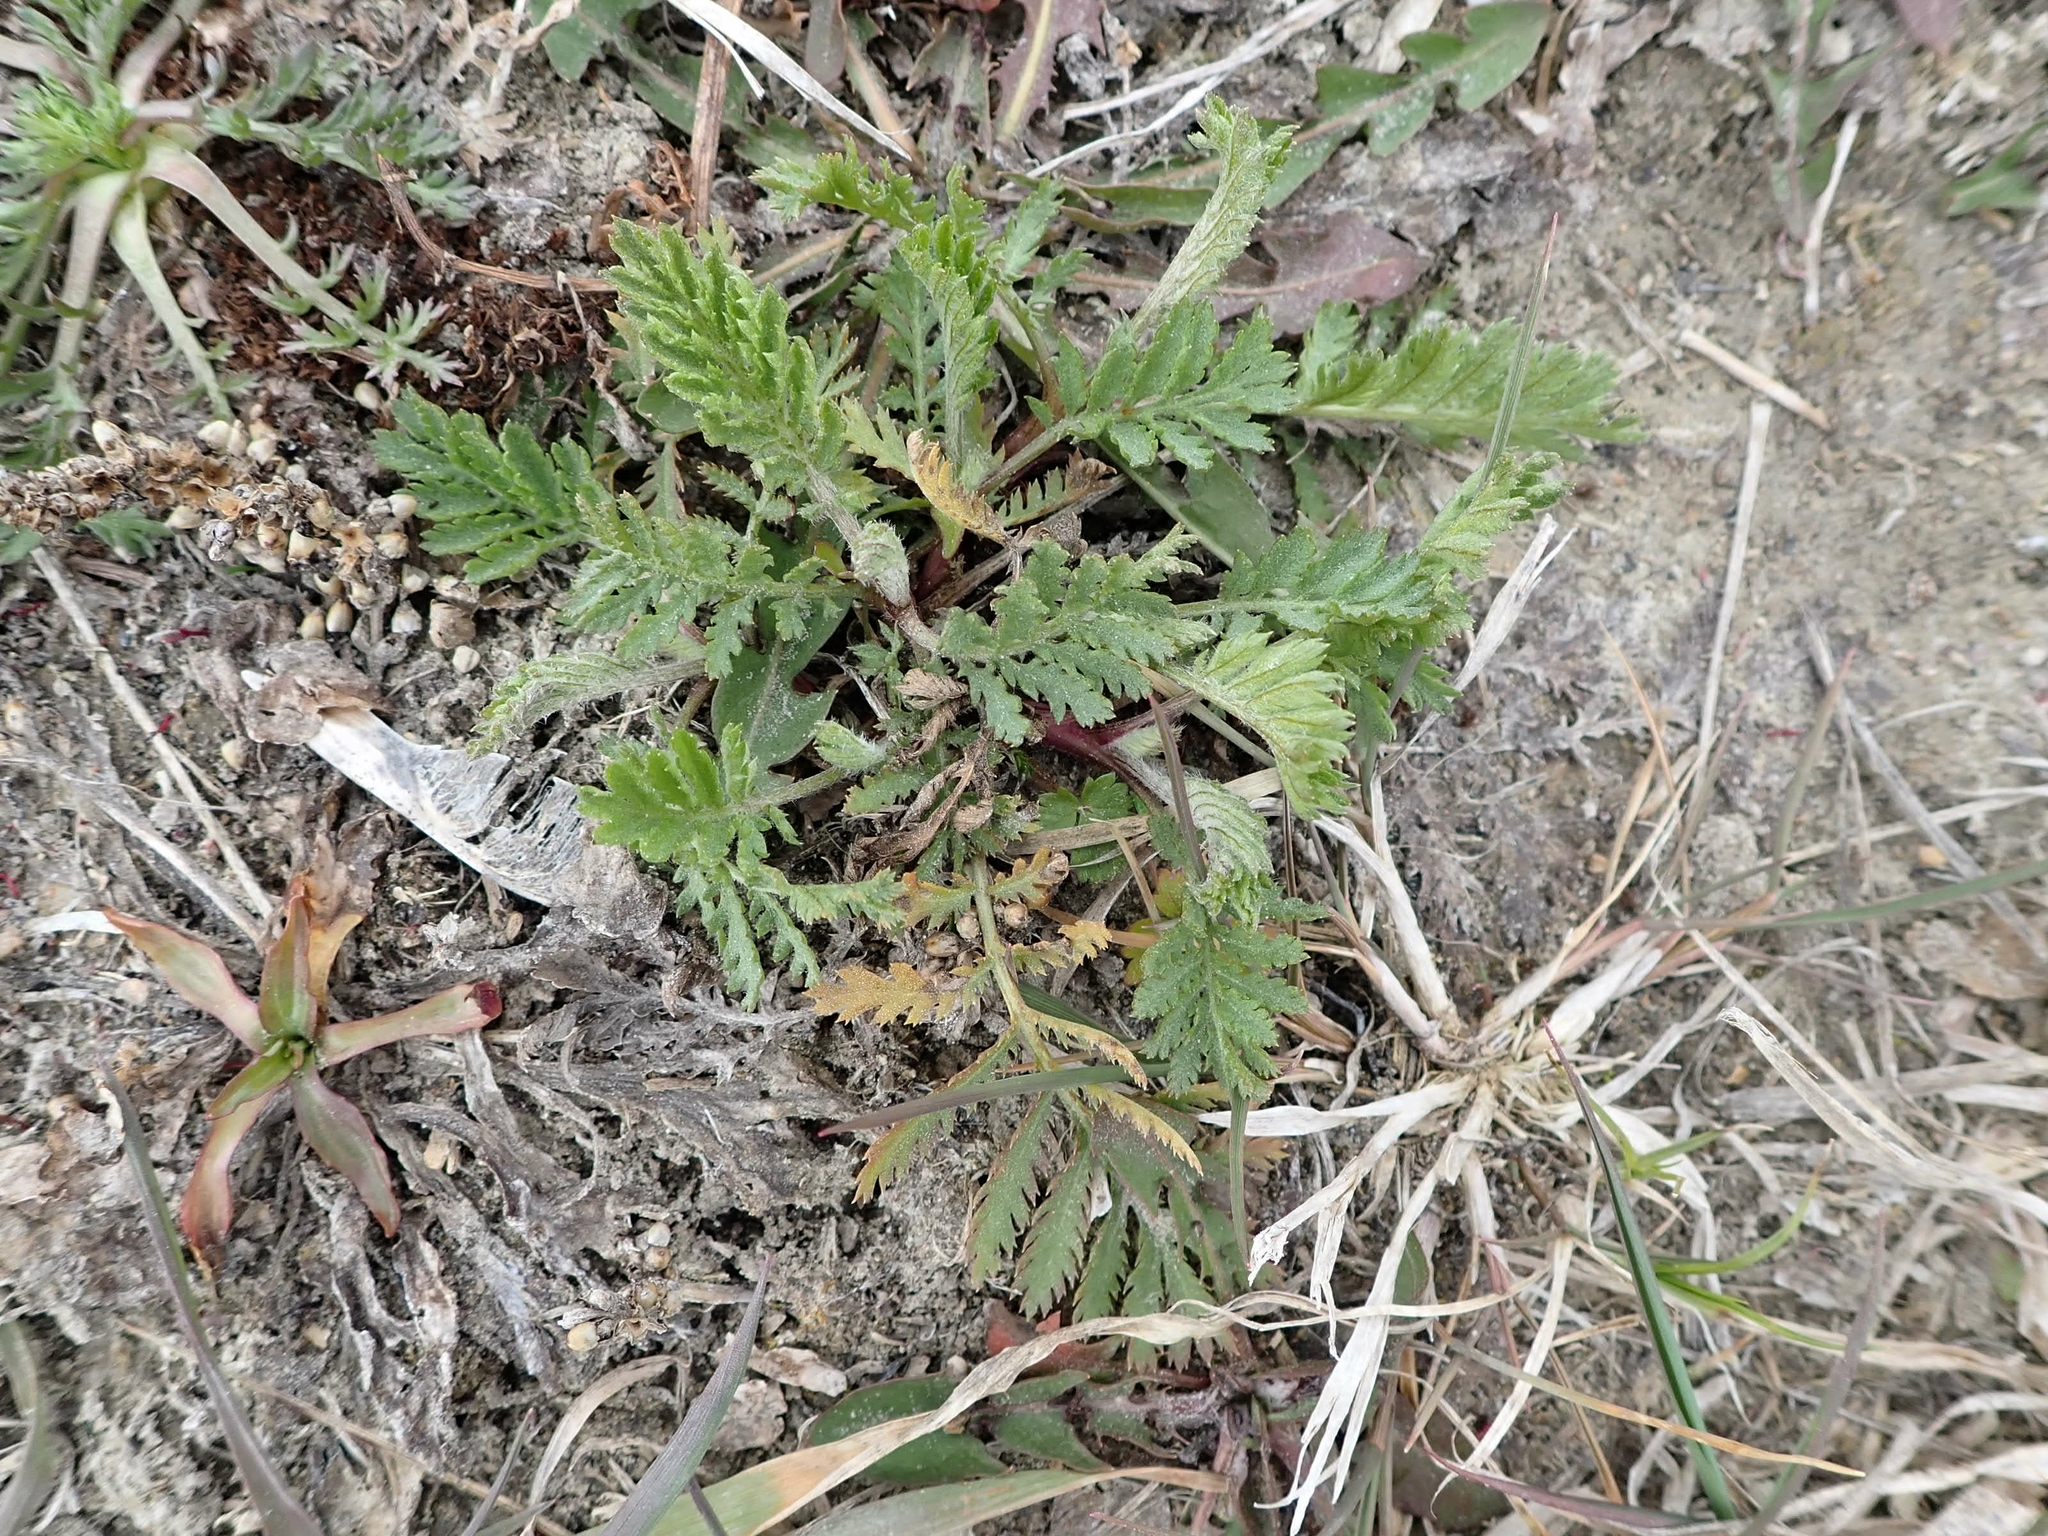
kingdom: Plantae
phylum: Tracheophyta
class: Magnoliopsida
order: Rosales
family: Rosaceae
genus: Argentina
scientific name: Argentina anserina
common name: Common silverweed
